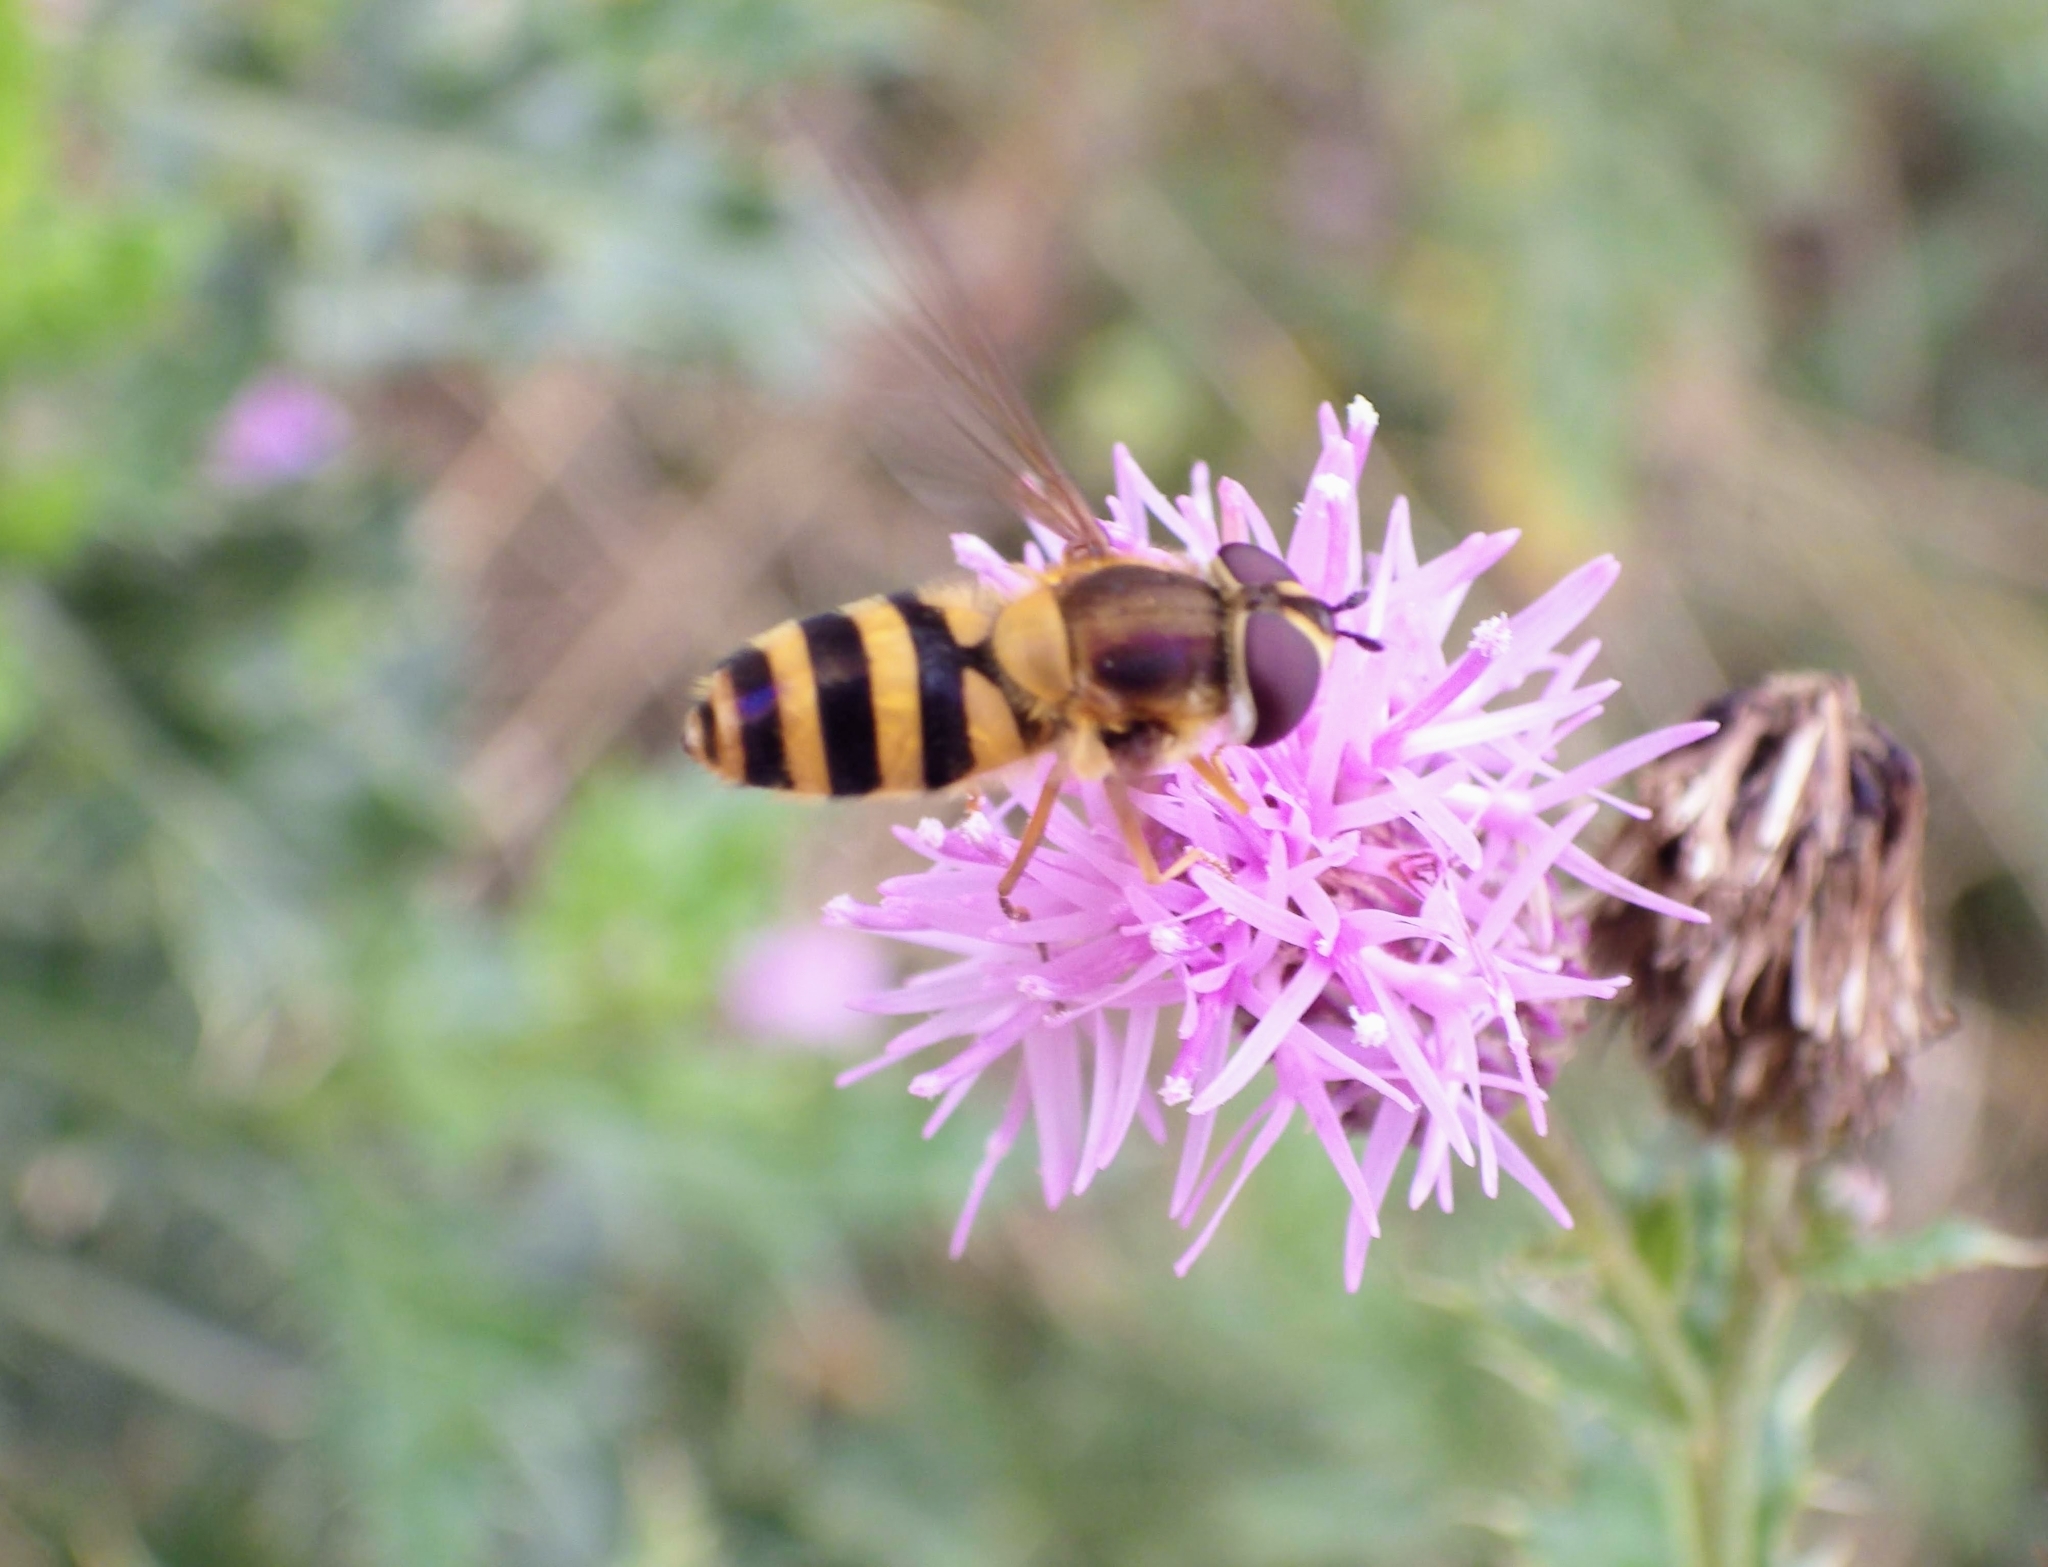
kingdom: Animalia
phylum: Arthropoda
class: Insecta
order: Diptera
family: Syrphidae
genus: Epistrophe
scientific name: Epistrophe grossulariae
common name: Black-horned smoothtail
